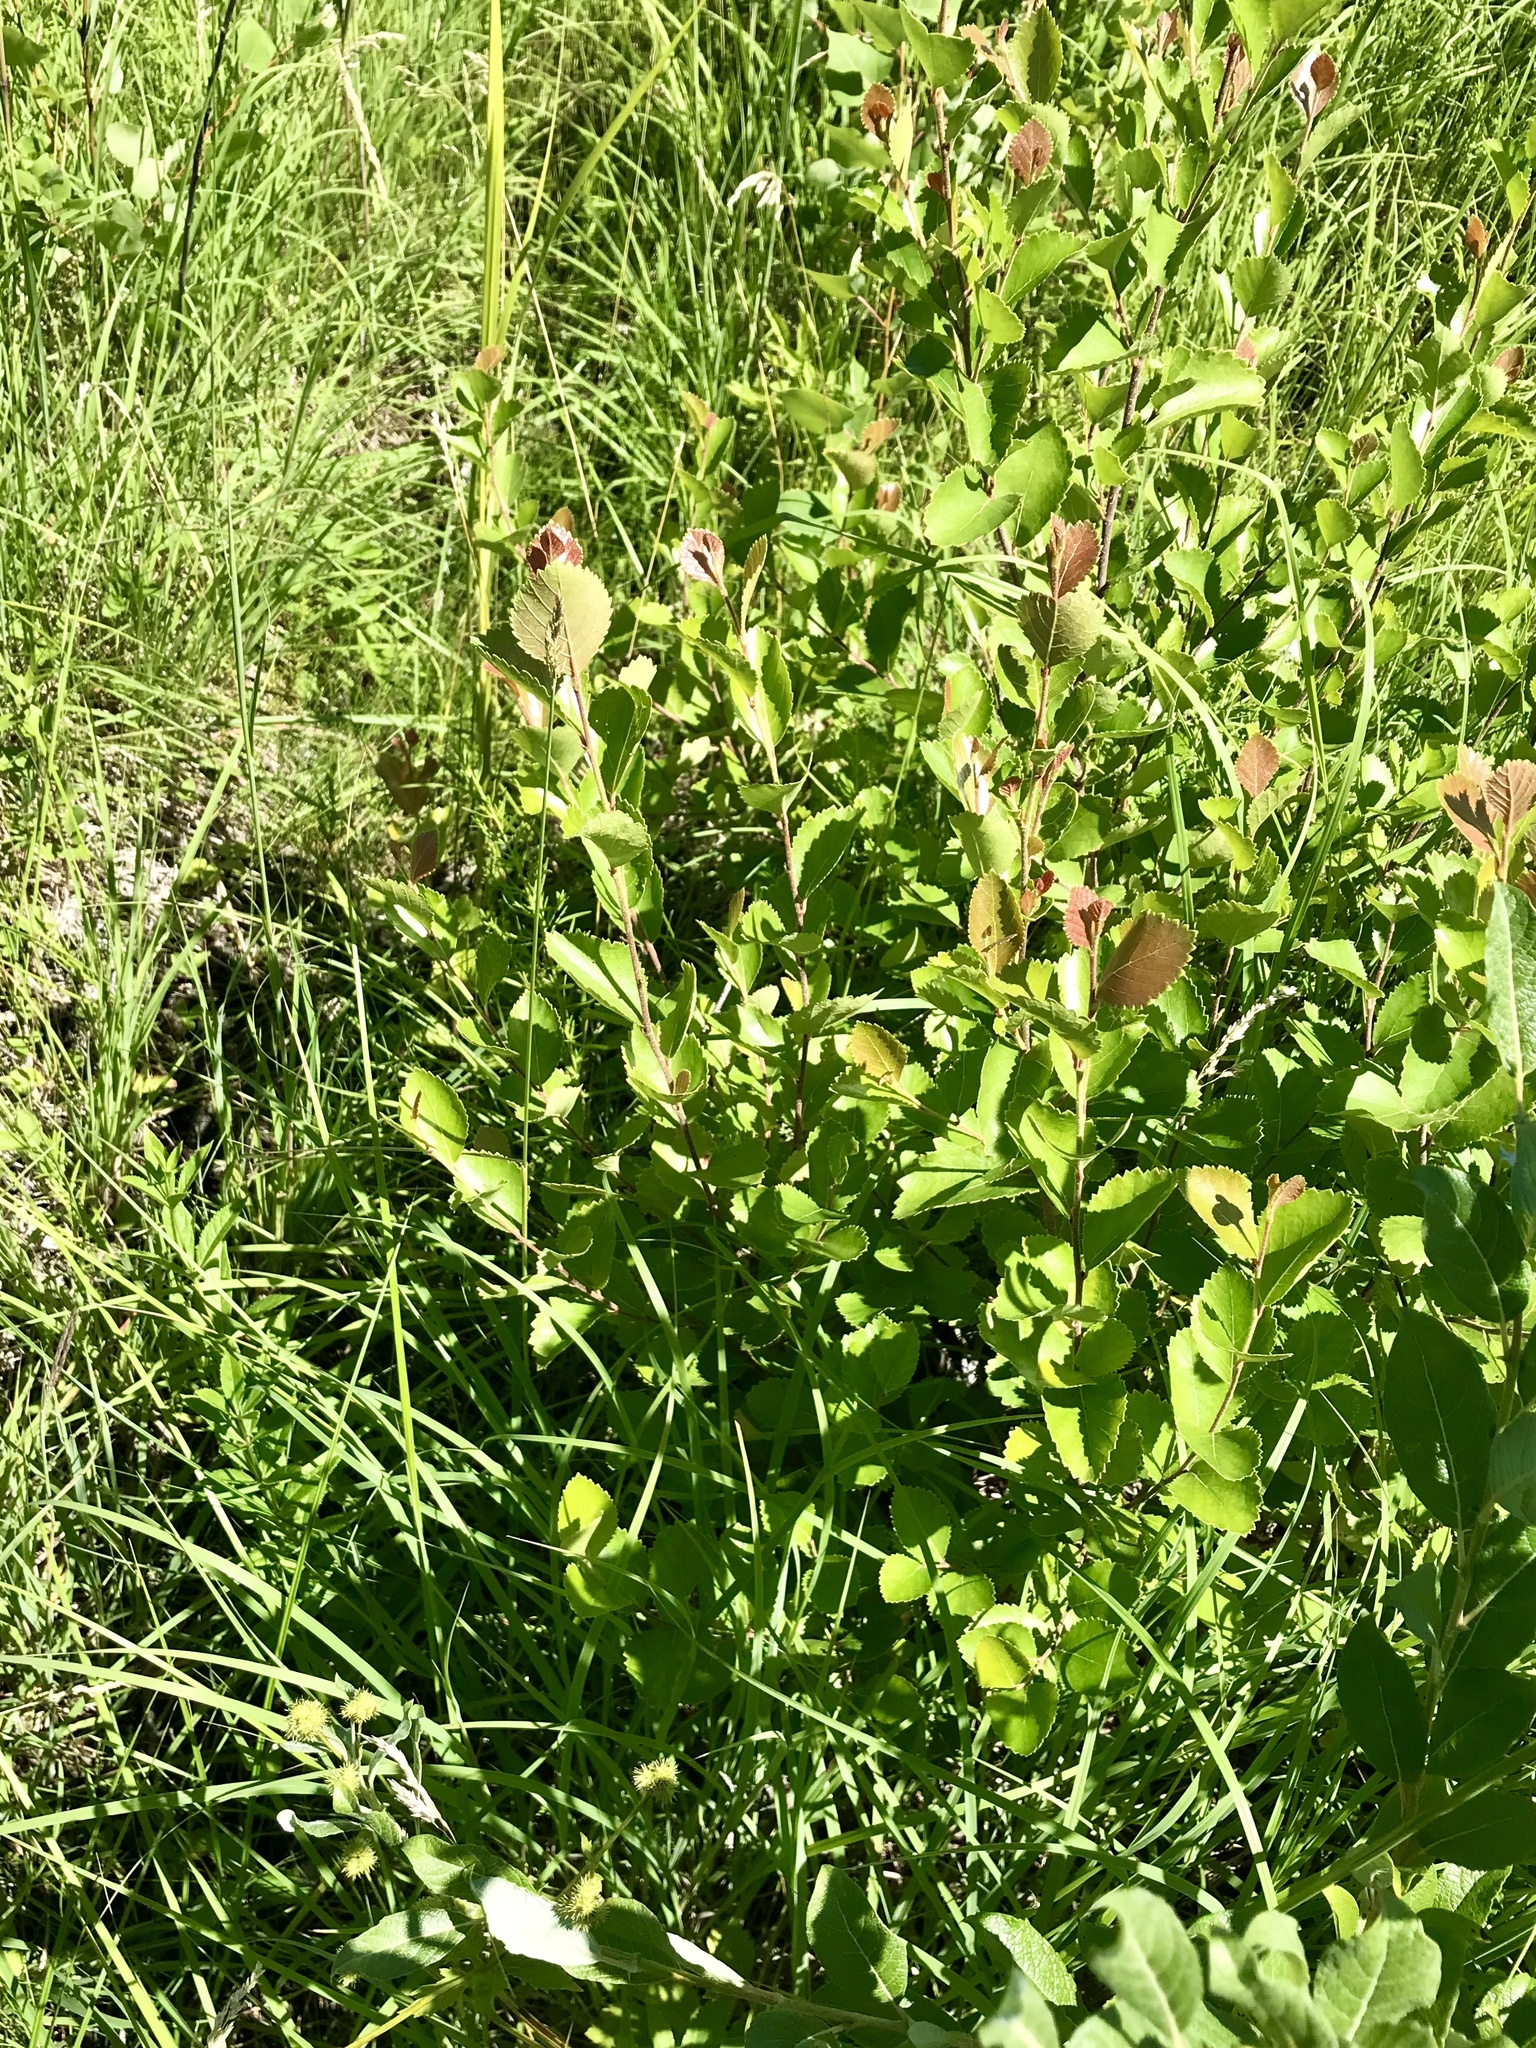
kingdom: Plantae
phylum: Tracheophyta
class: Magnoliopsida
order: Fagales
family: Betulaceae
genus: Betula
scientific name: Betula pumila
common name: Bog birch
